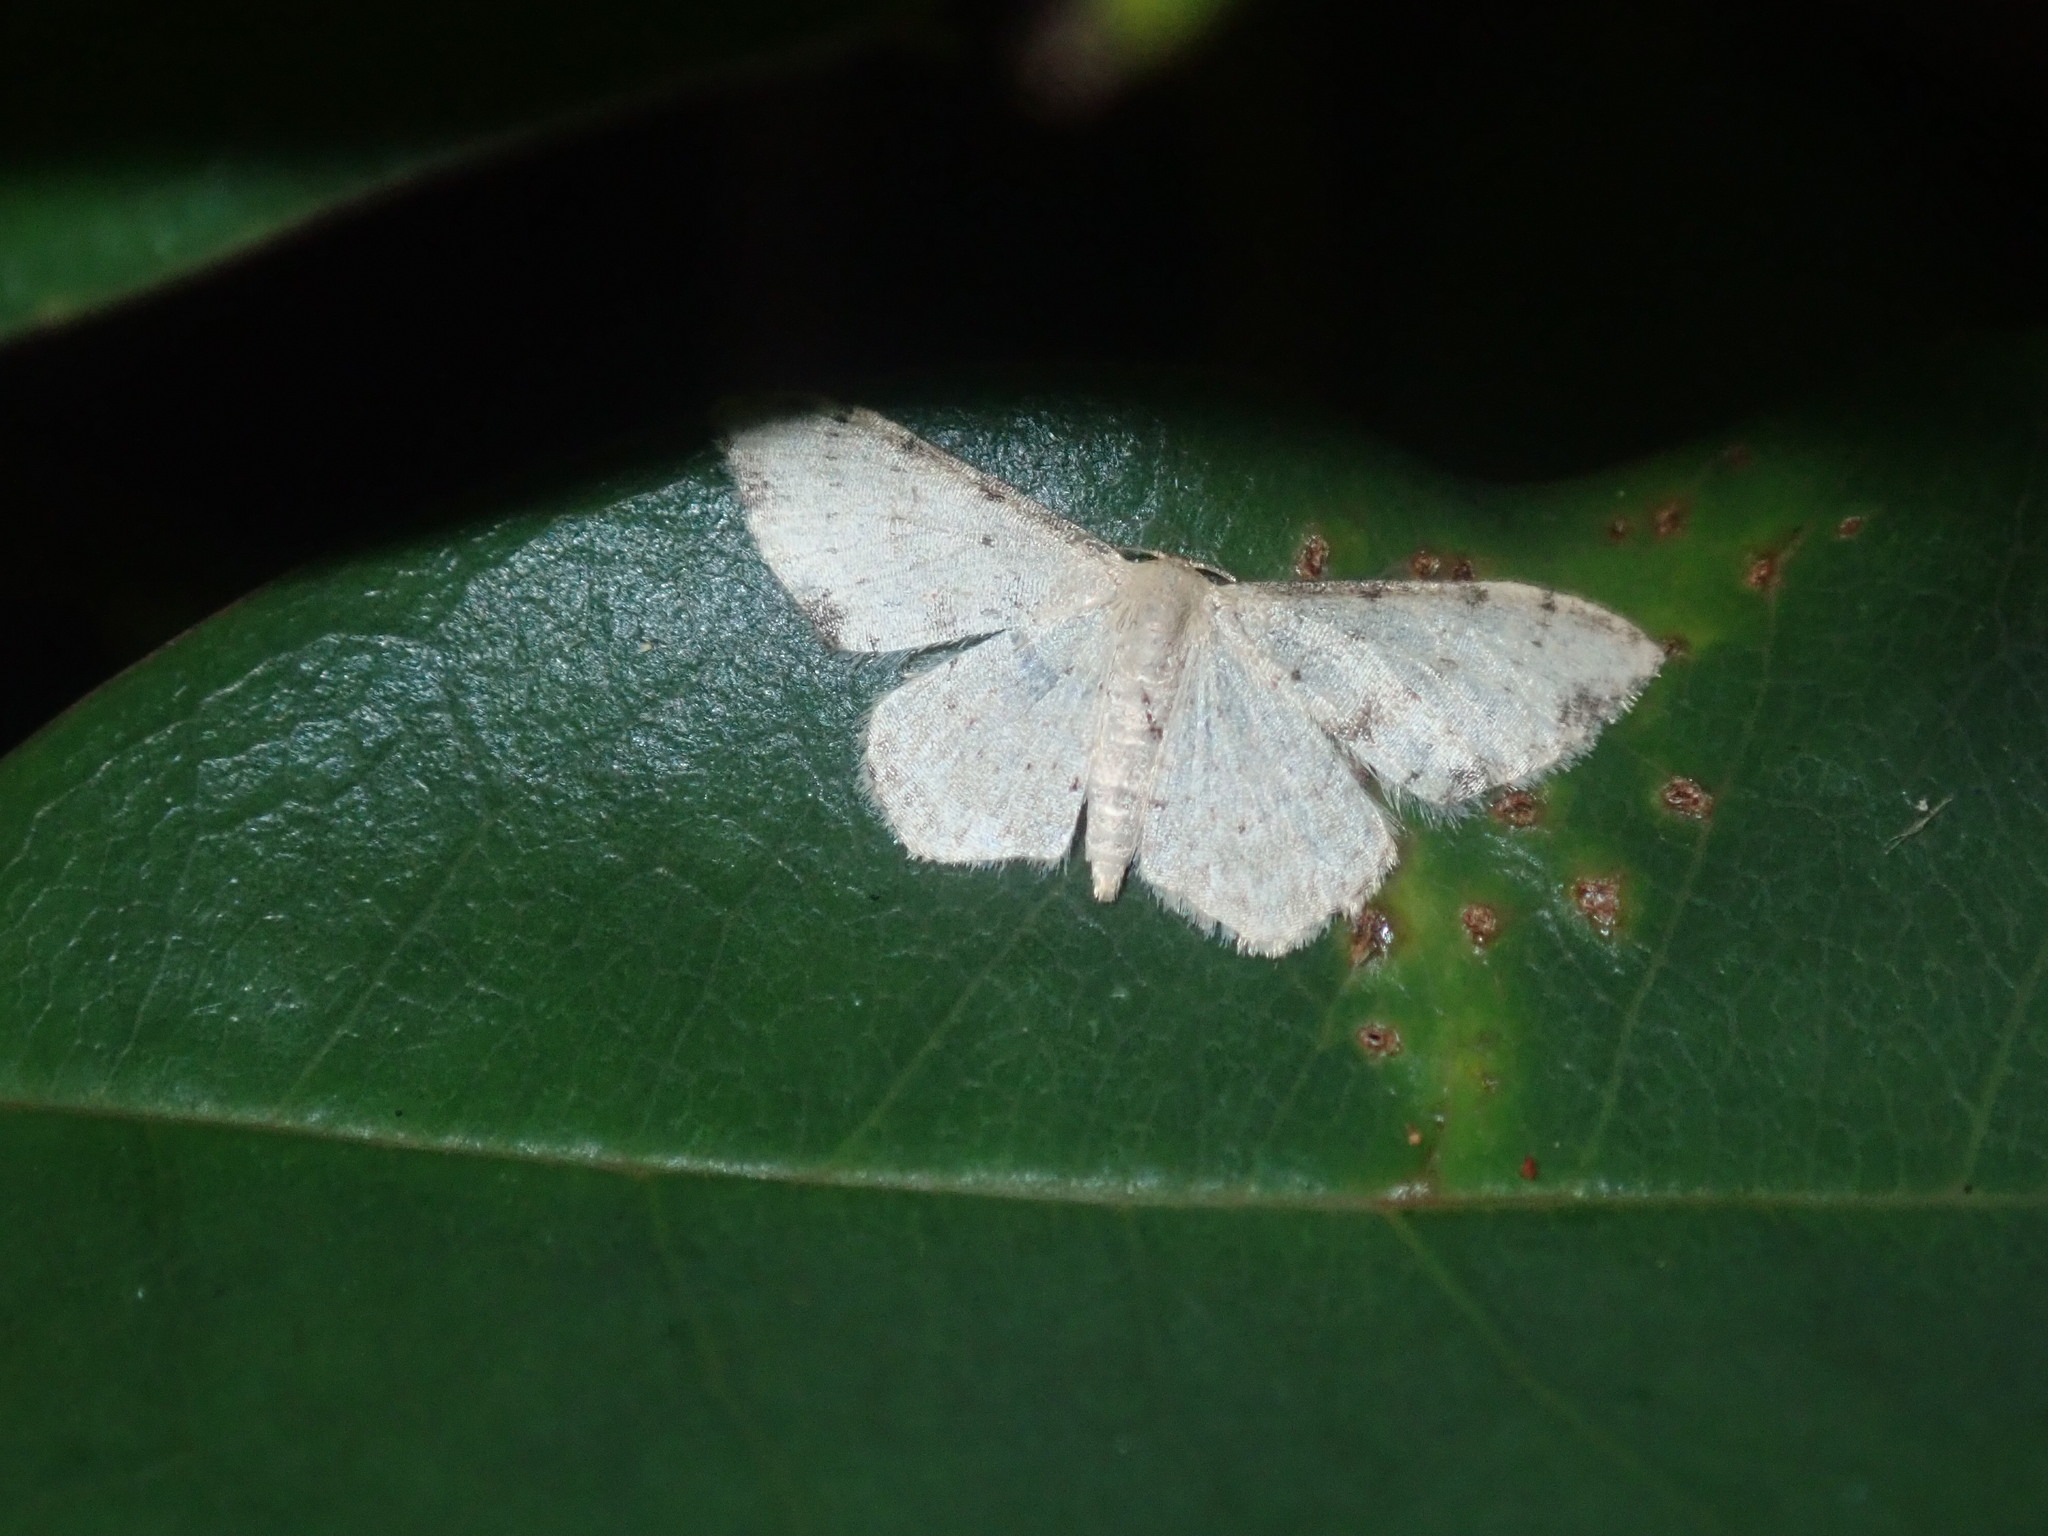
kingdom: Animalia
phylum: Arthropoda
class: Insecta
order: Lepidoptera
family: Geometridae
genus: Idaea
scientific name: Idaea halmaea
